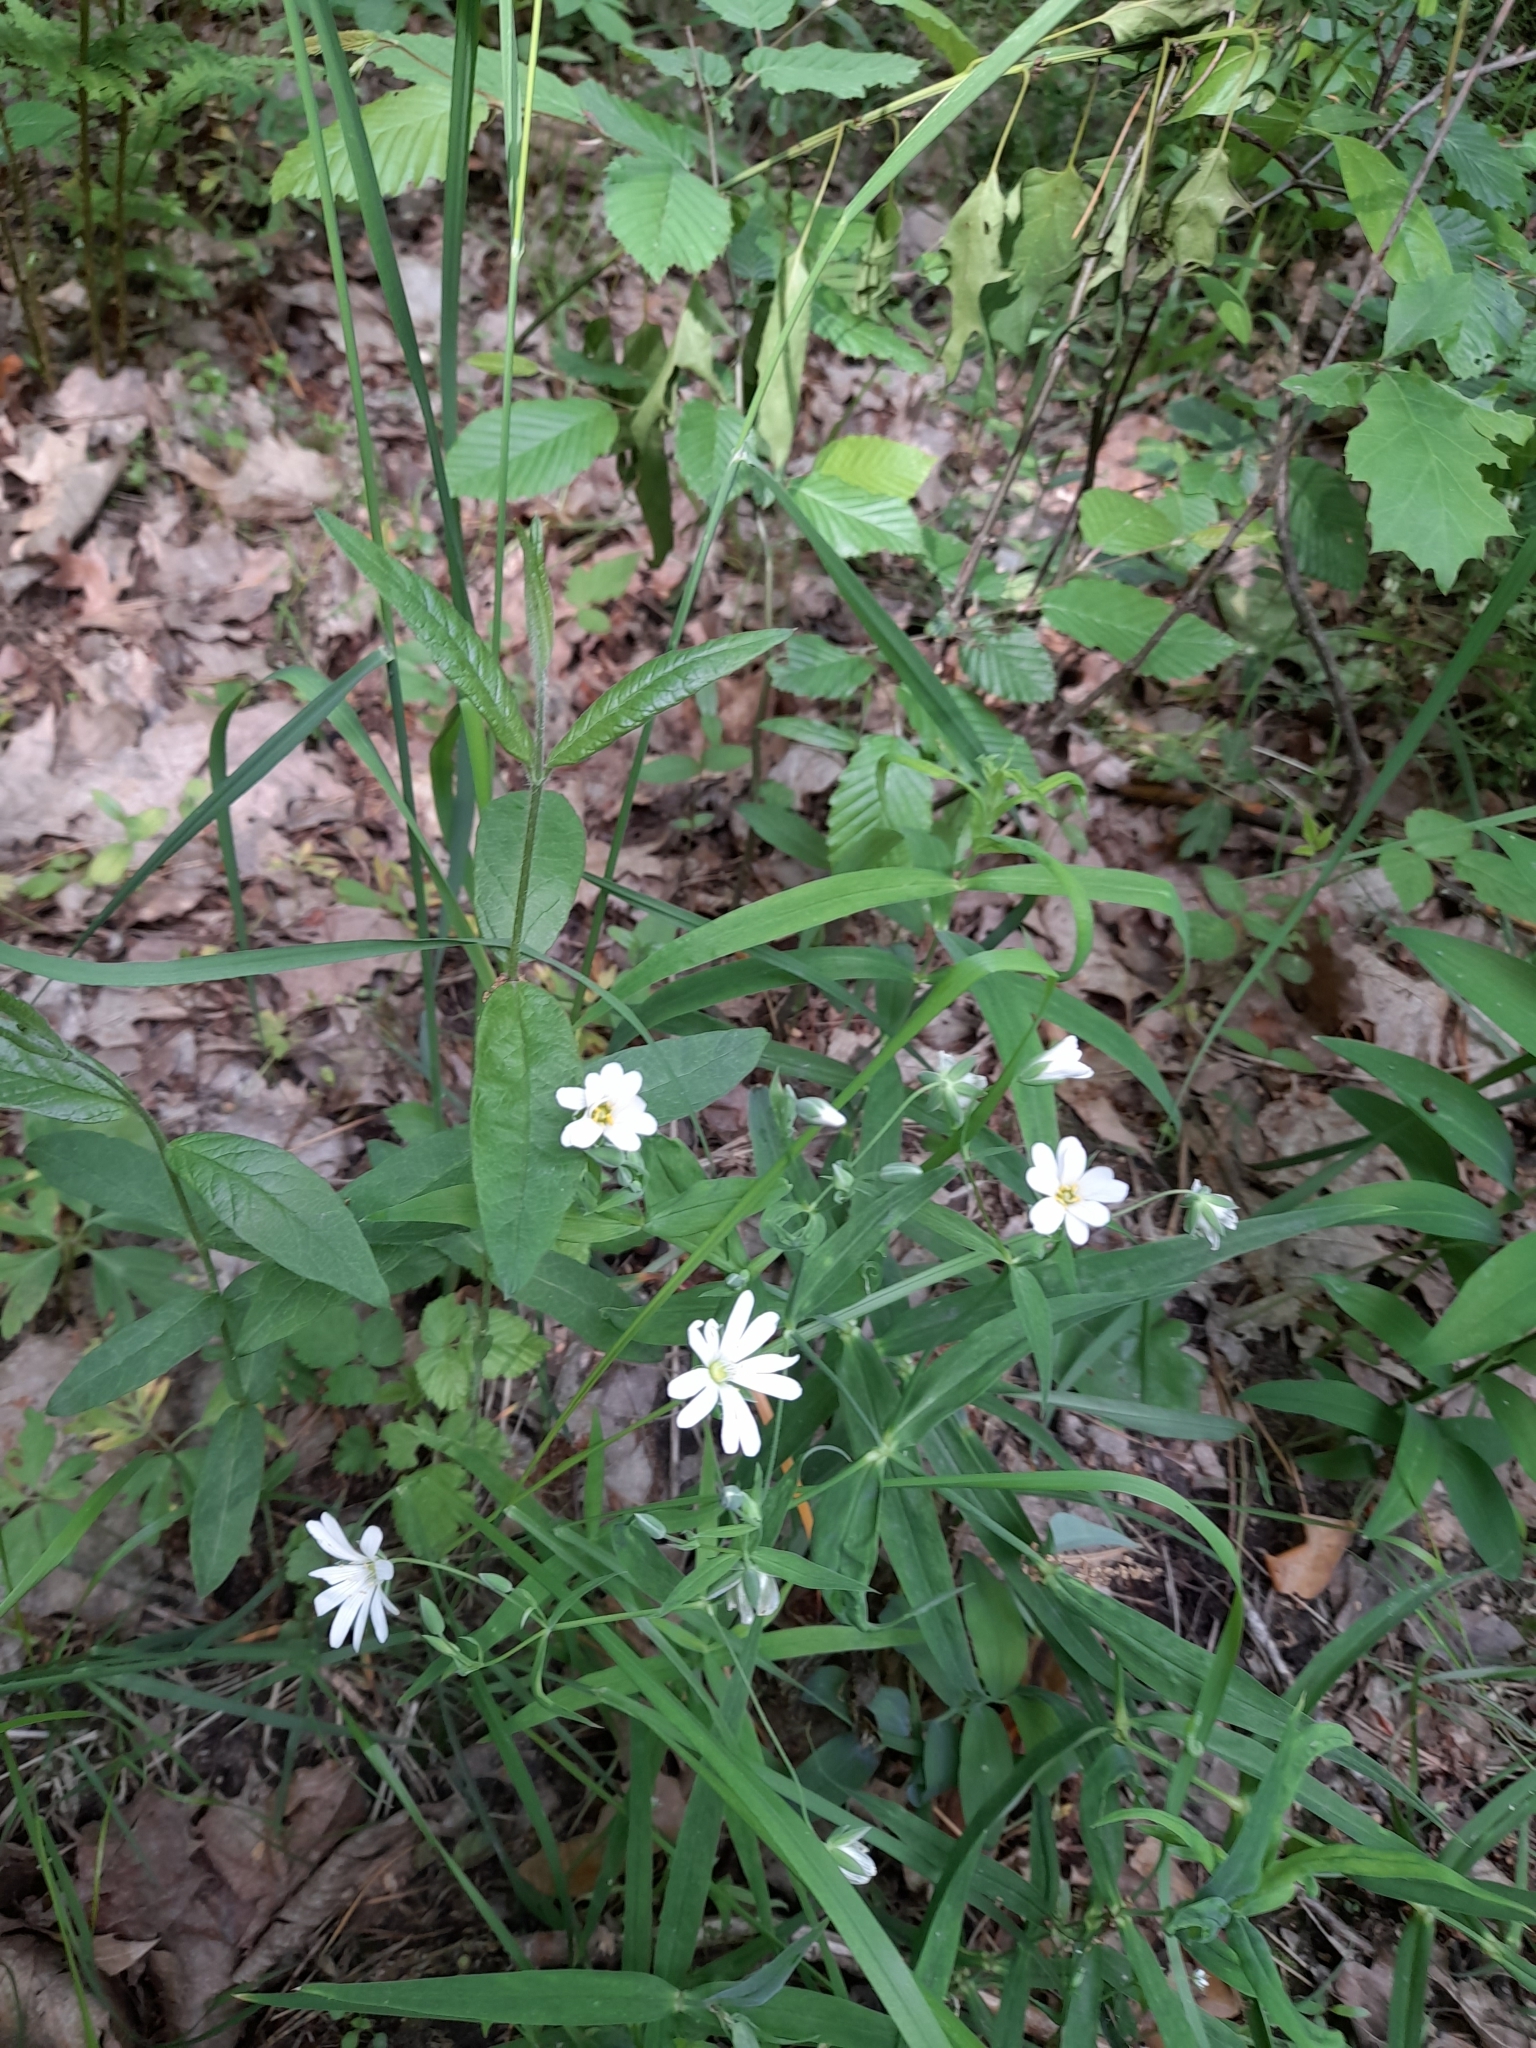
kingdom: Plantae
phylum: Tracheophyta
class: Magnoliopsida
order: Caryophyllales
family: Caryophyllaceae
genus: Rabelera
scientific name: Rabelera holostea
